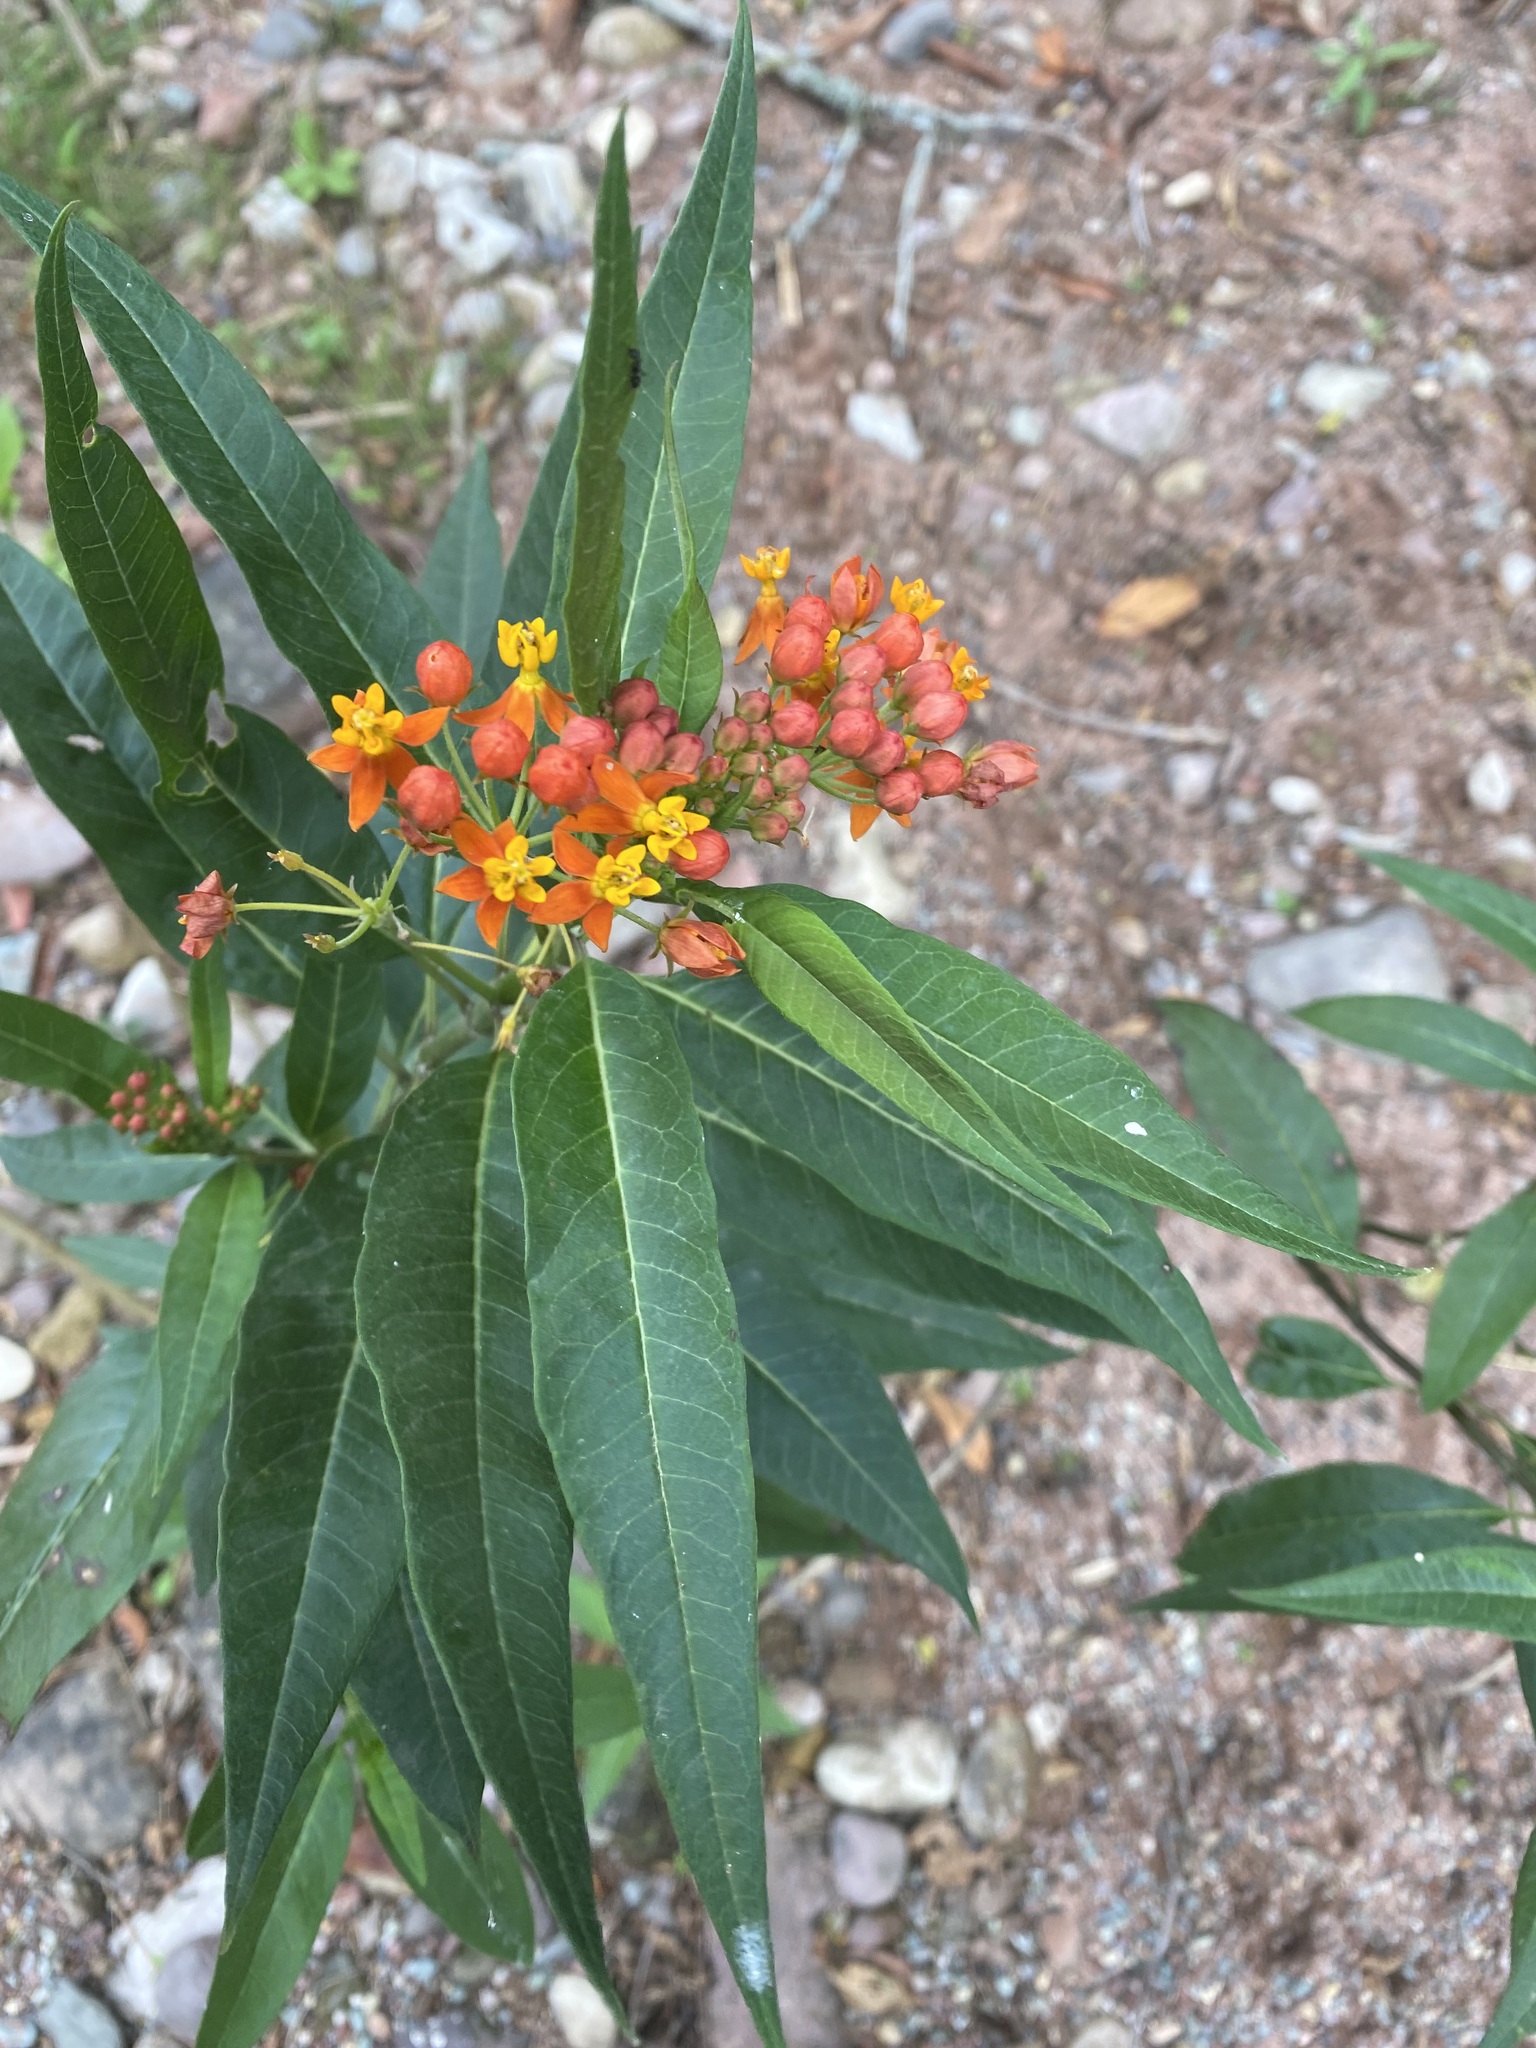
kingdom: Plantae
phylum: Tracheophyta
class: Magnoliopsida
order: Gentianales
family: Apocynaceae
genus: Asclepias
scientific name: Asclepias curassavica
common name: Bloodflower
